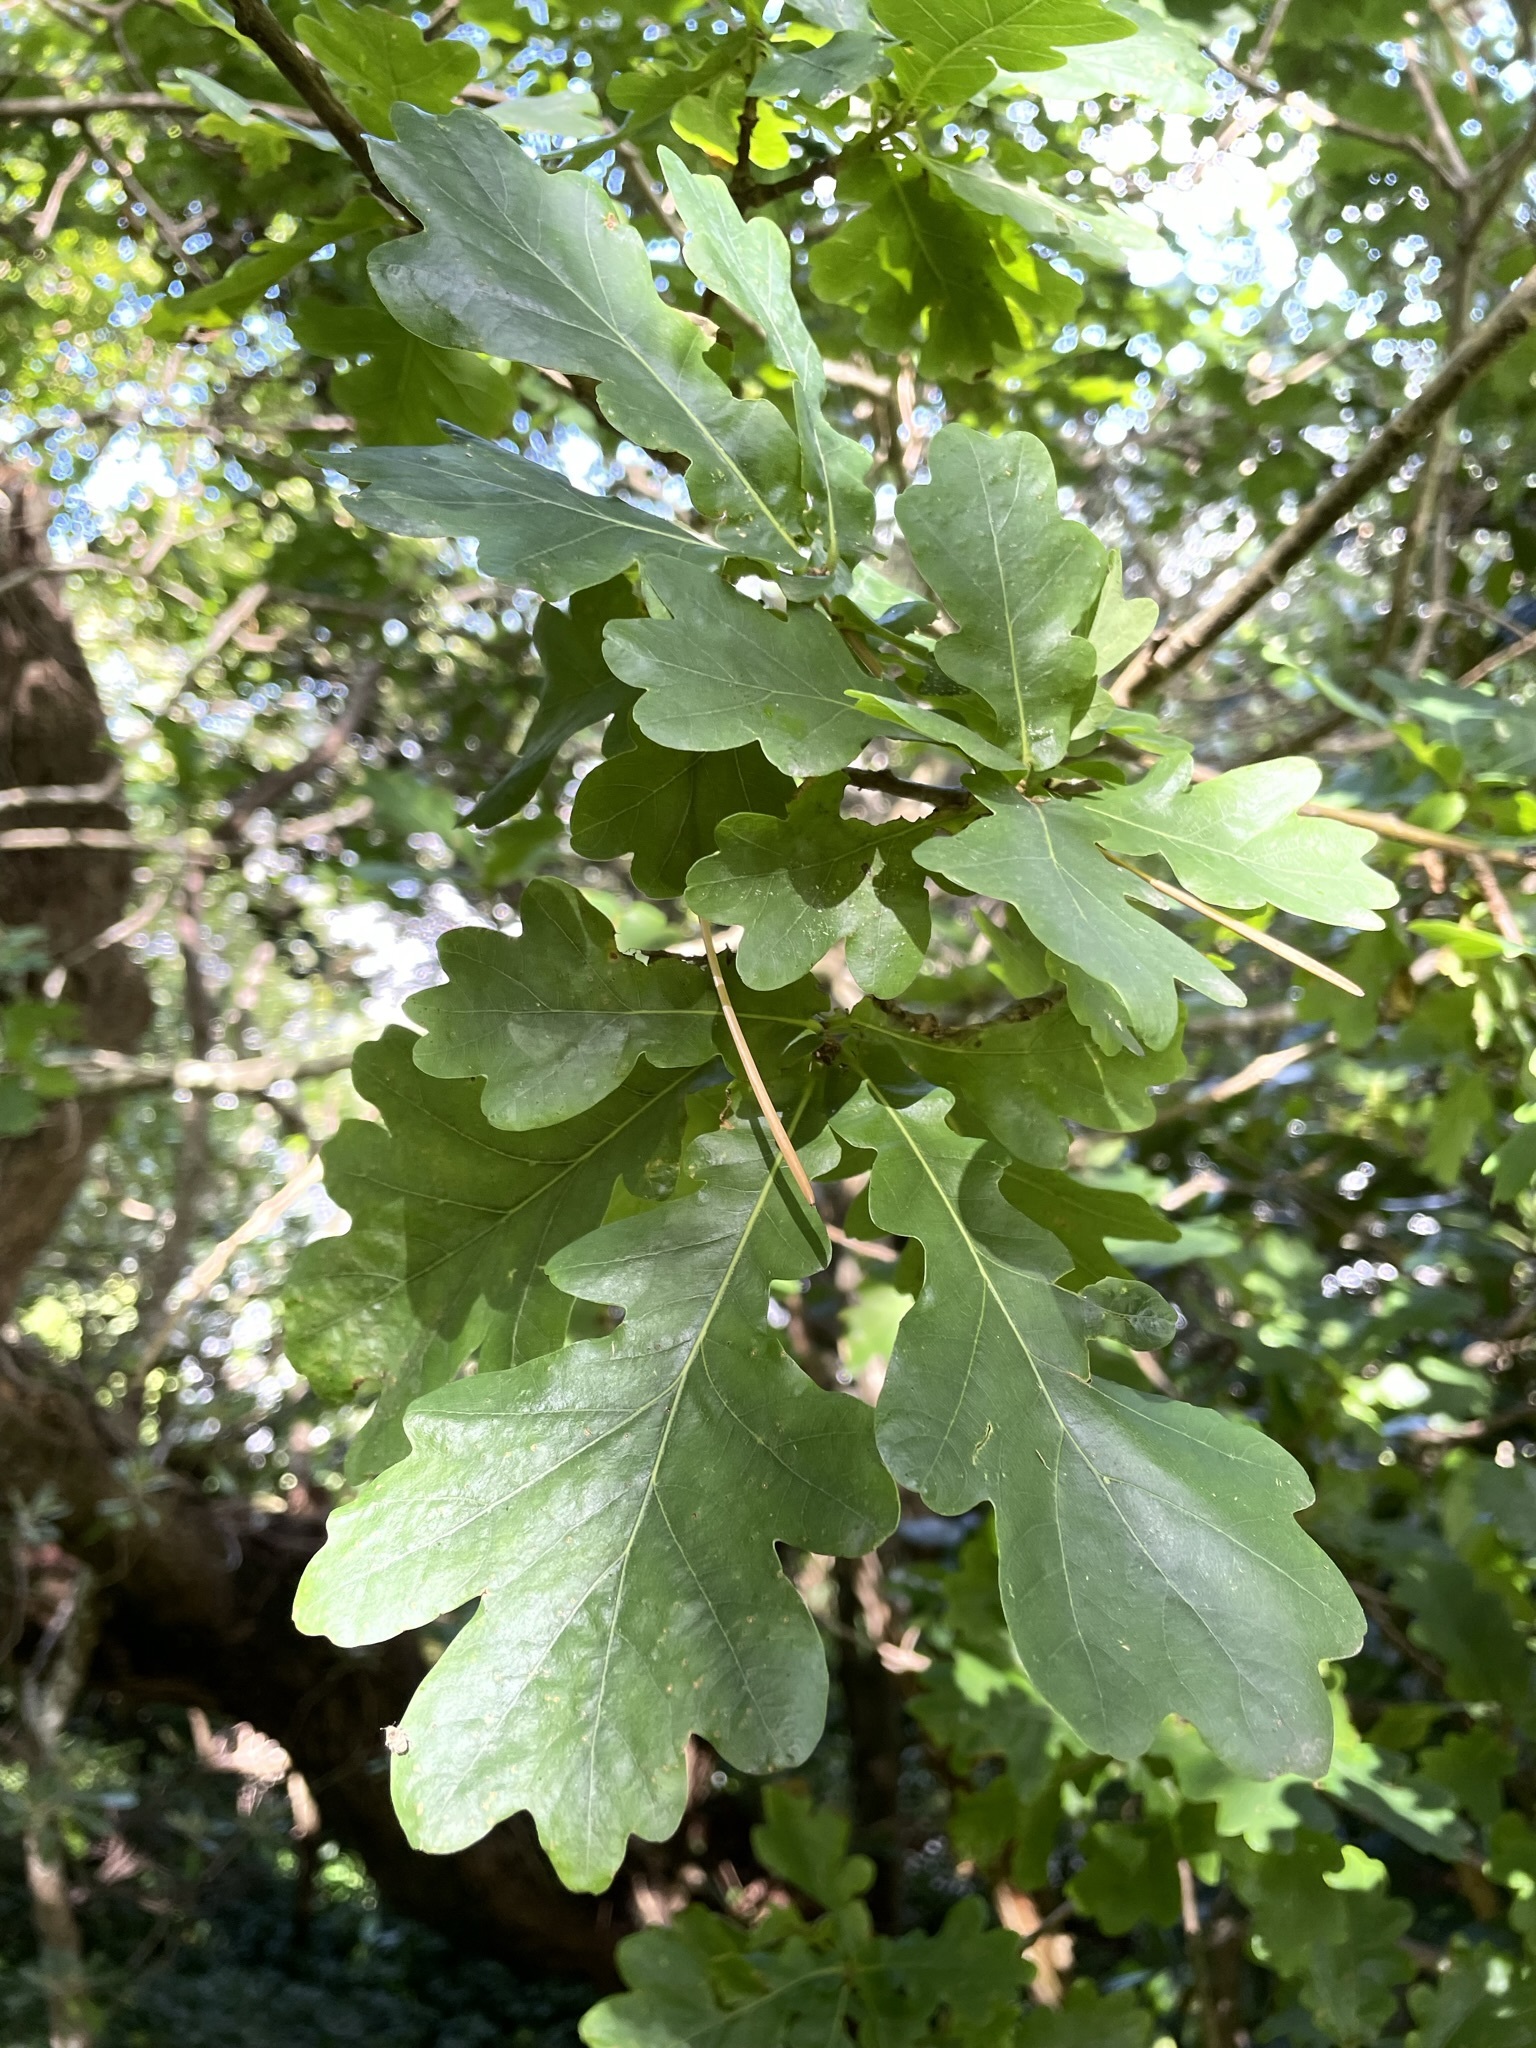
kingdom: Plantae
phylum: Tracheophyta
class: Magnoliopsida
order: Fagales
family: Fagaceae
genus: Quercus
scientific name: Quercus robur
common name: Pedunculate oak
